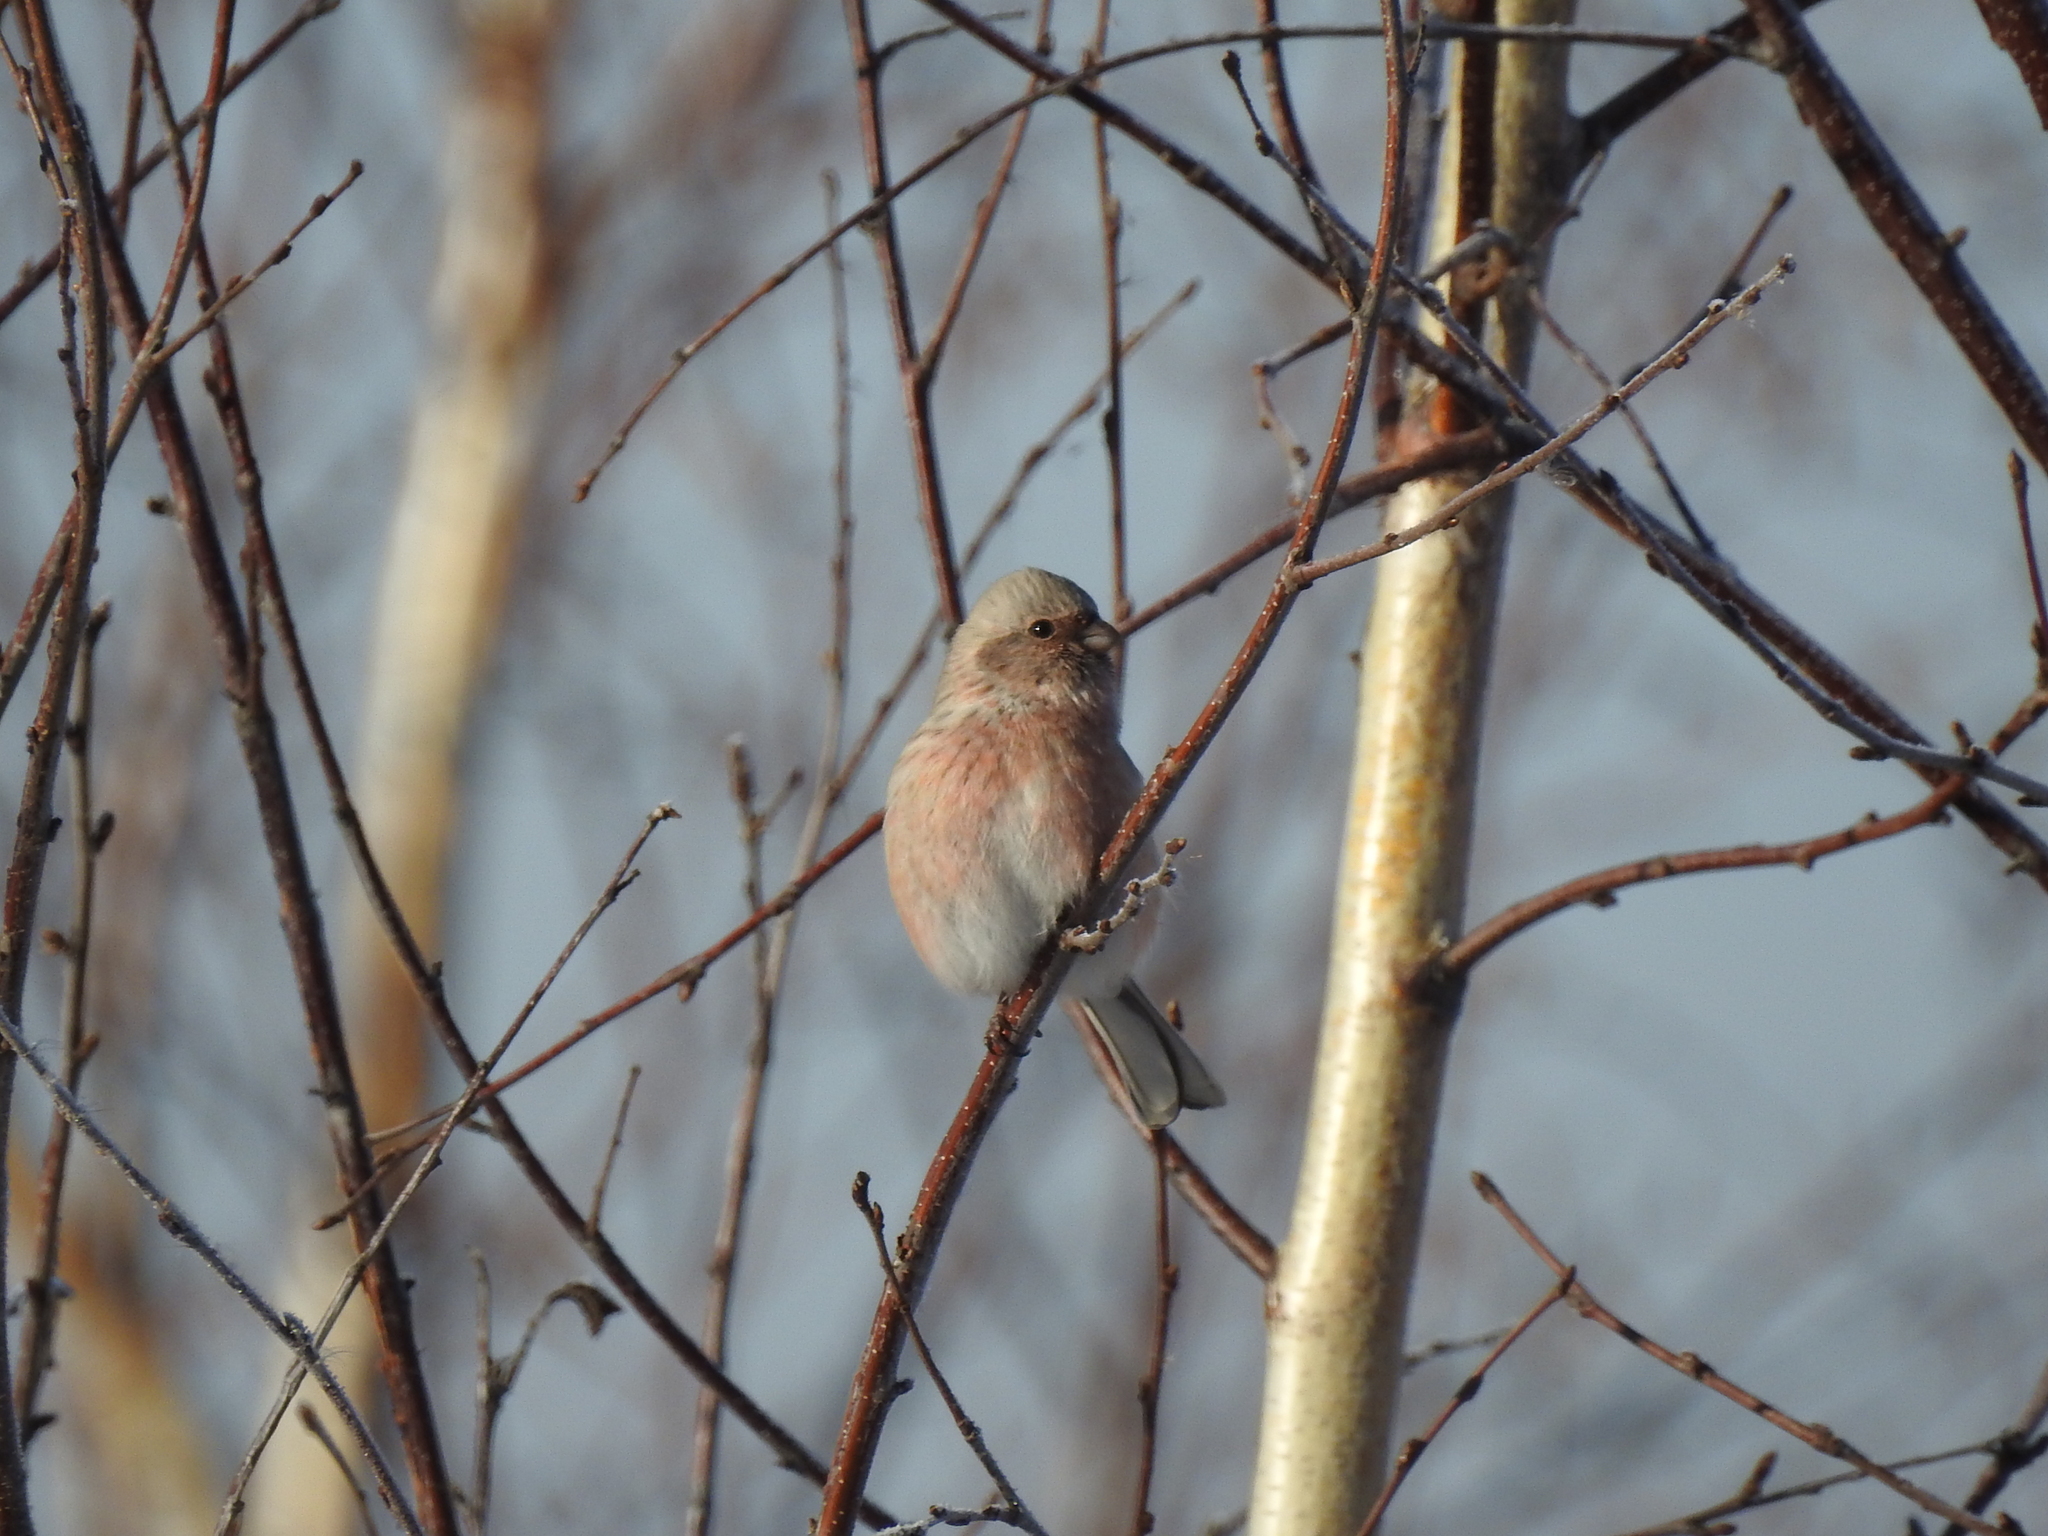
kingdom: Animalia
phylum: Chordata
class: Aves
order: Passeriformes
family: Fringillidae
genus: Carpodacus
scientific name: Carpodacus sibiricus
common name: Long-tailed rosefinch
